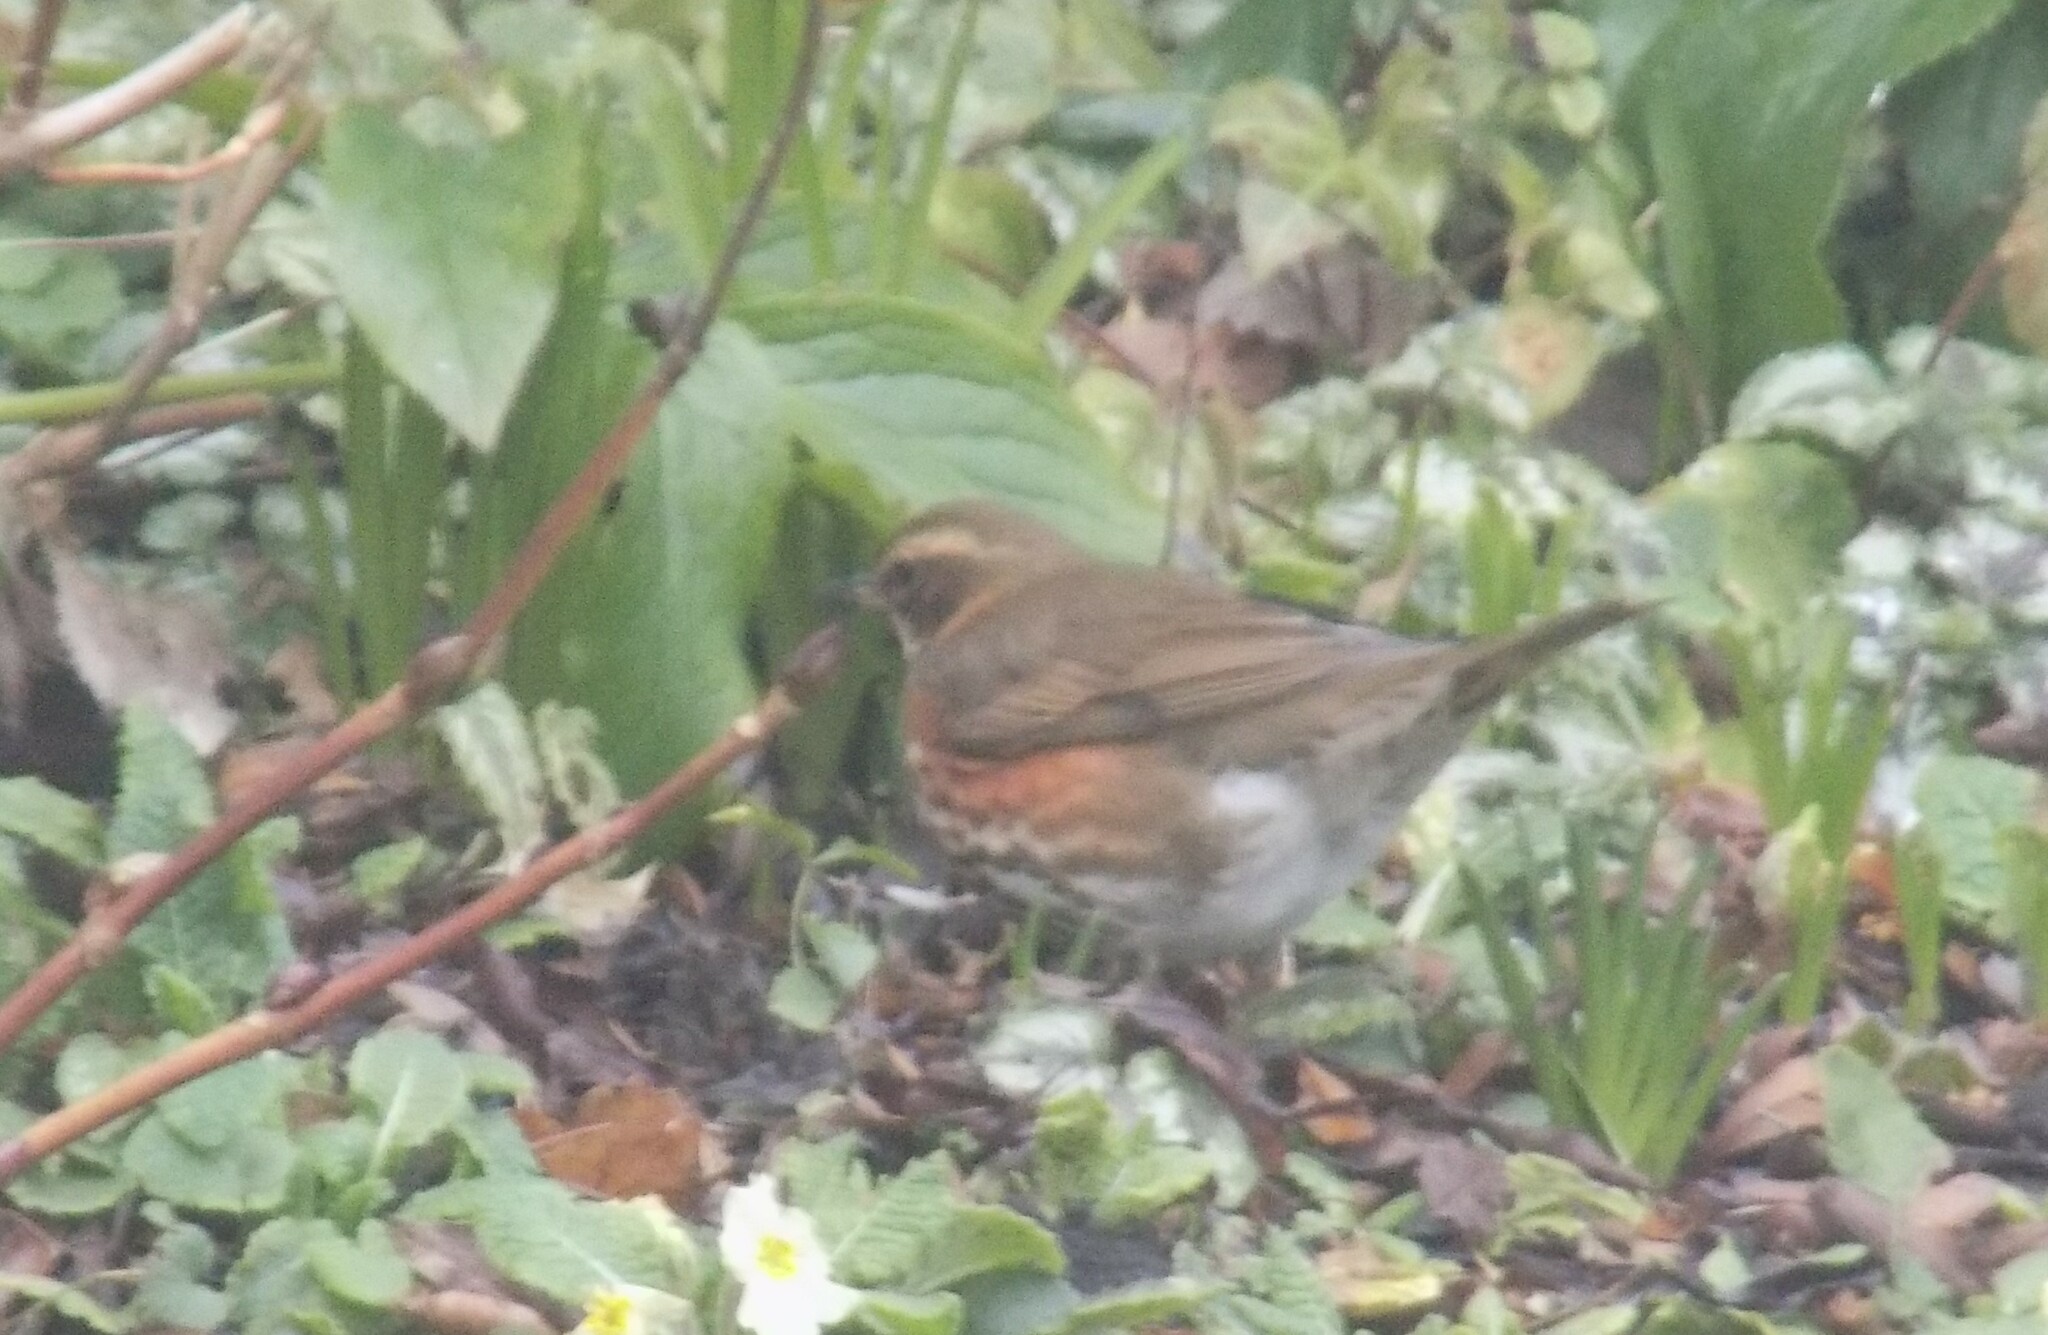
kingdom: Animalia
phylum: Chordata
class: Aves
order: Passeriformes
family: Turdidae
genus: Turdus
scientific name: Turdus iliacus
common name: Redwing
